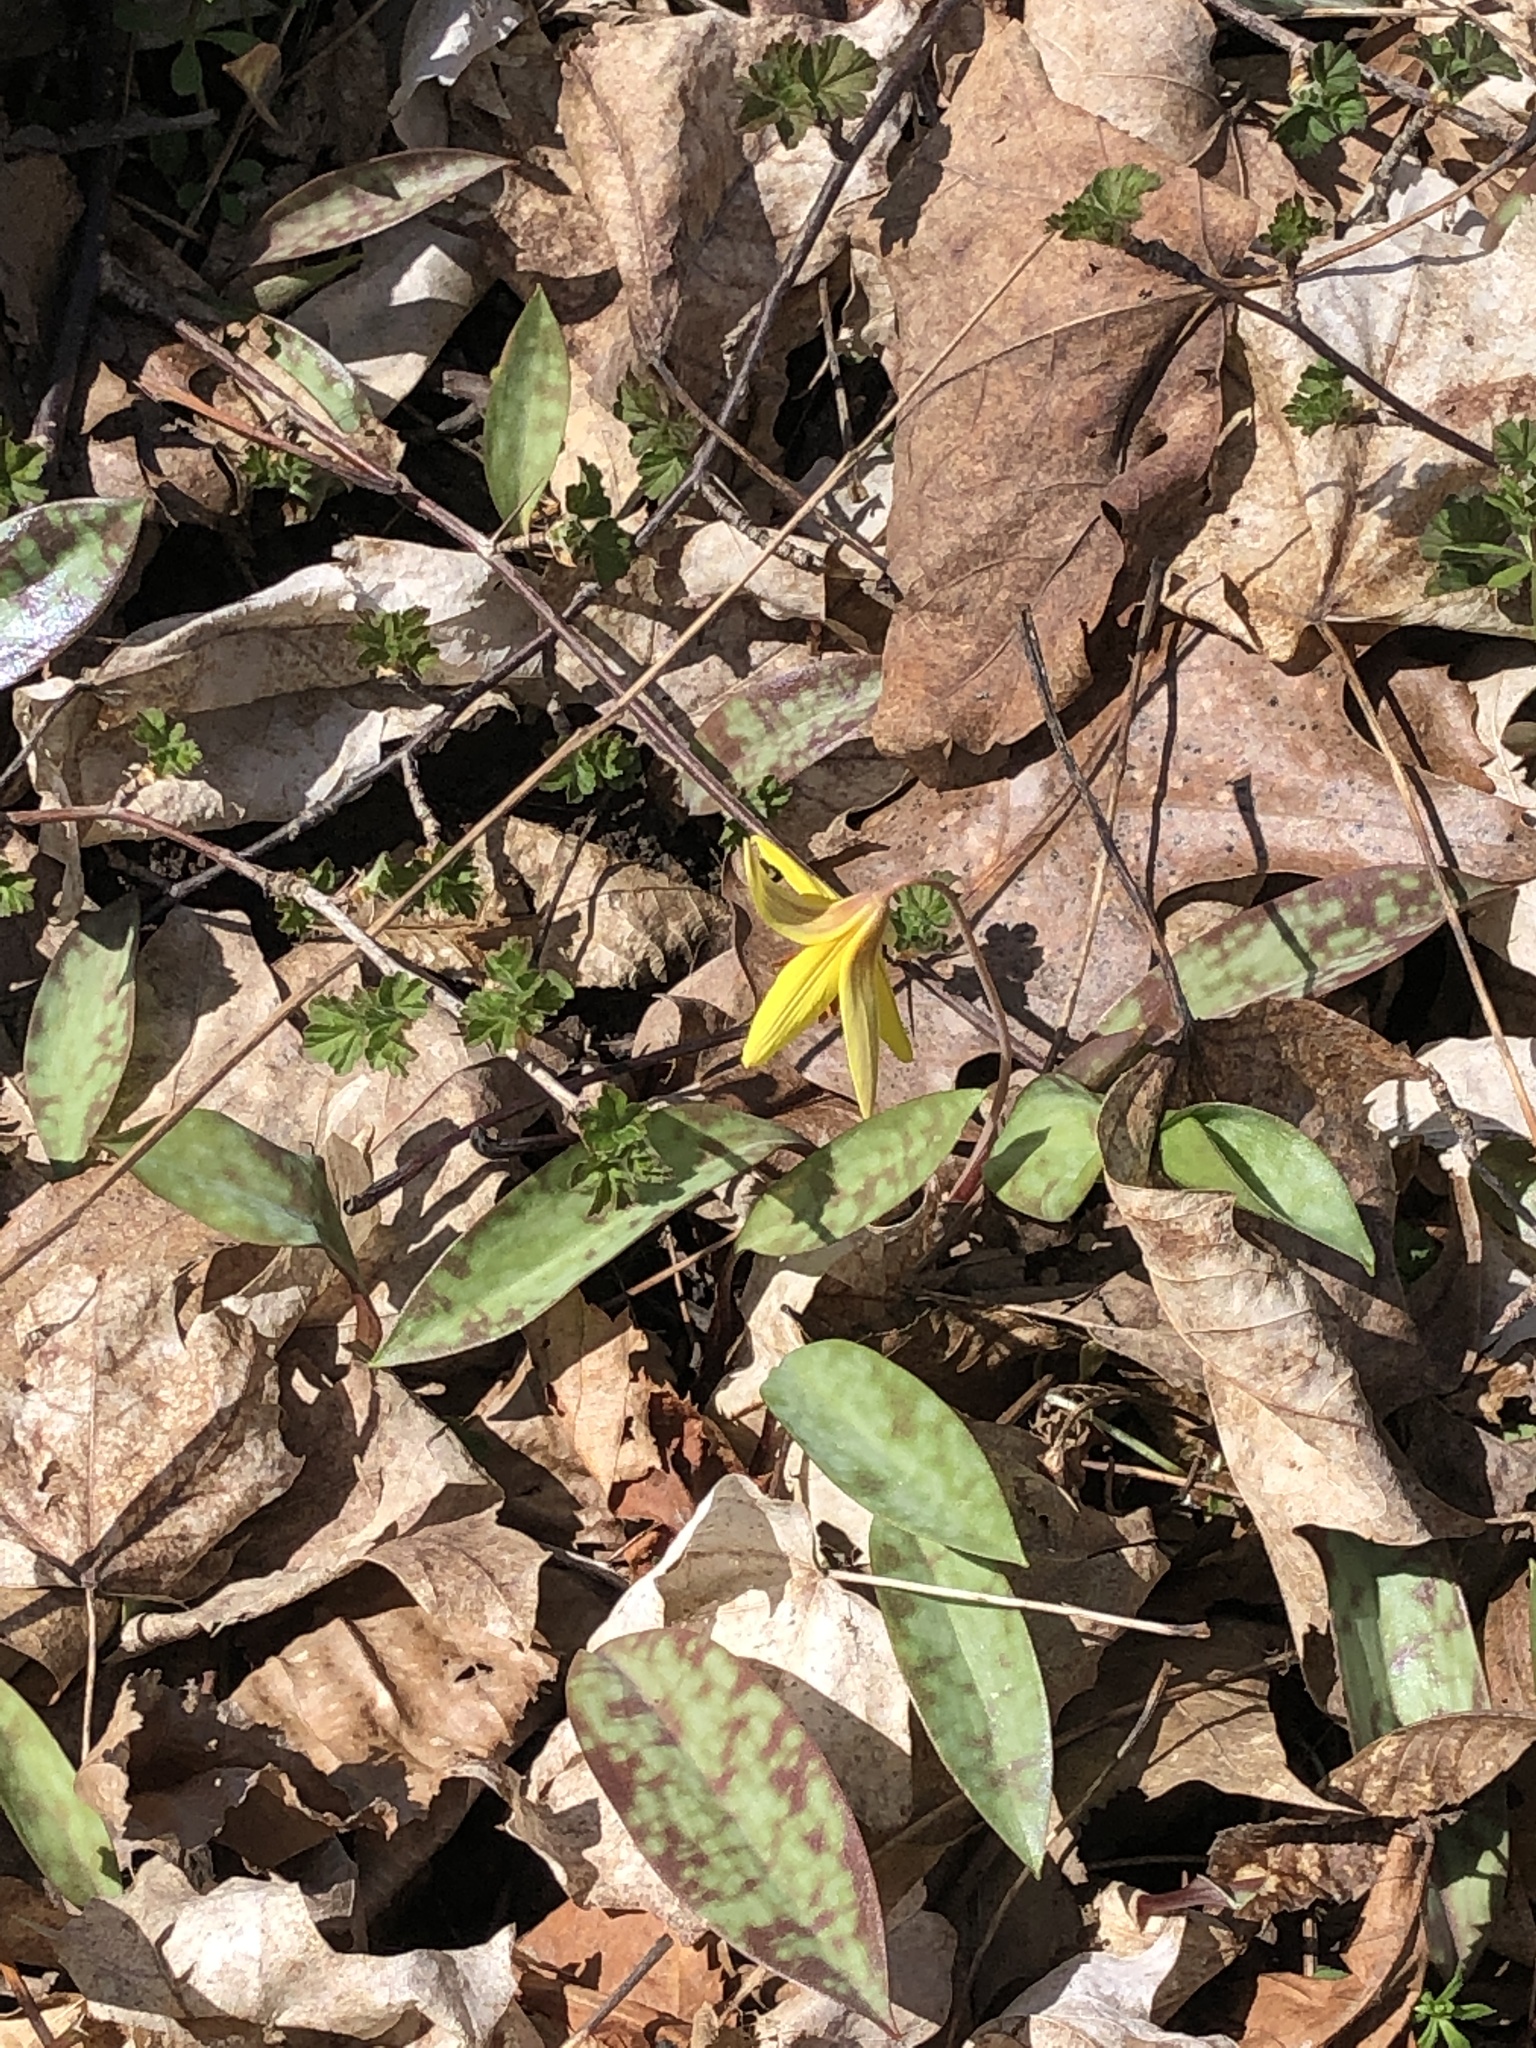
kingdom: Plantae
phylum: Tracheophyta
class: Liliopsida
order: Liliales
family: Liliaceae
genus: Erythronium
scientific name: Erythronium americanum
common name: Yellow adder's-tongue
